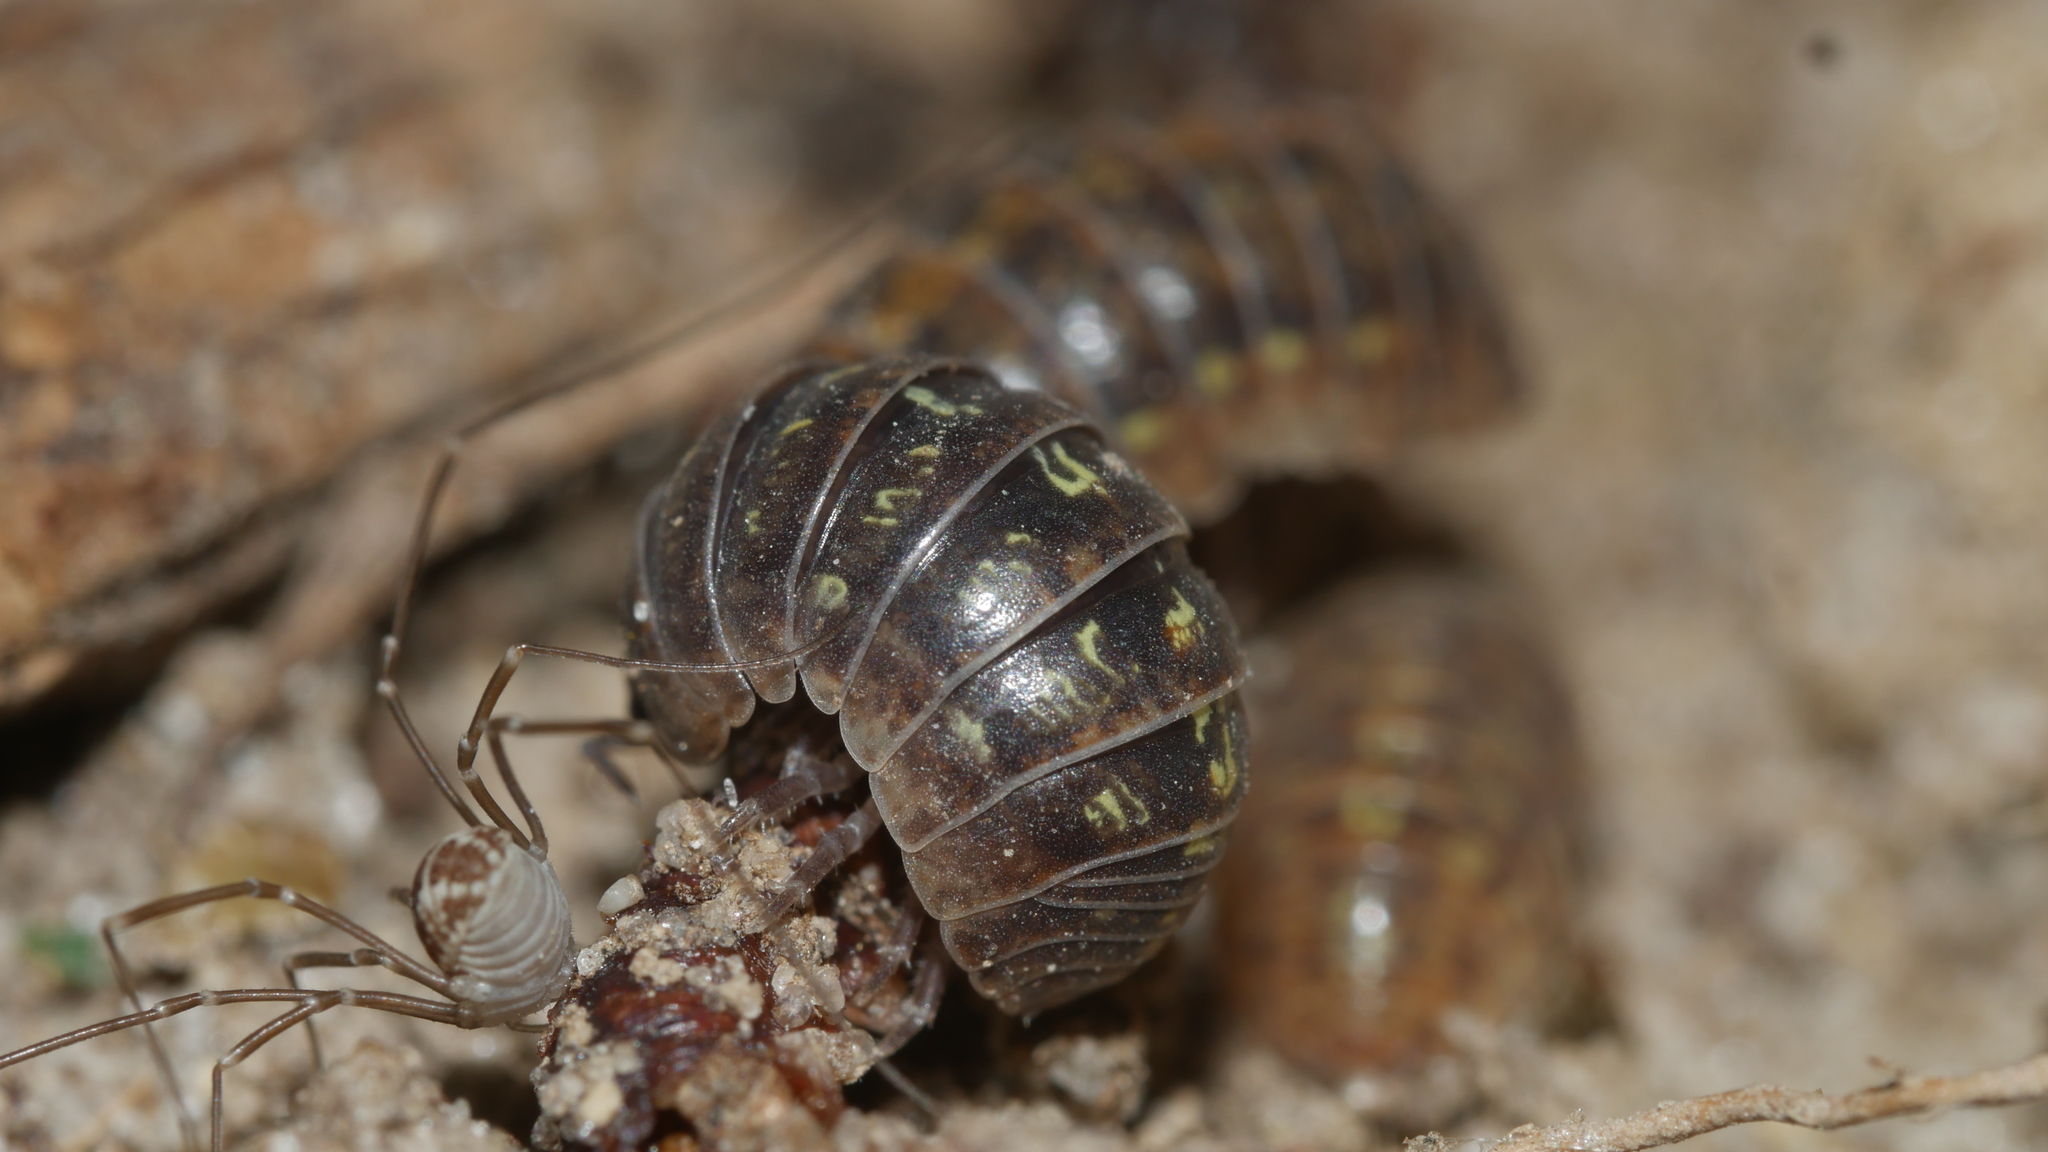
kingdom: Animalia
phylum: Arthropoda
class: Malacostraca
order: Isopoda
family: Armadillidiidae
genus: Armadillidium
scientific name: Armadillidium vulgare
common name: Common pill woodlouse
